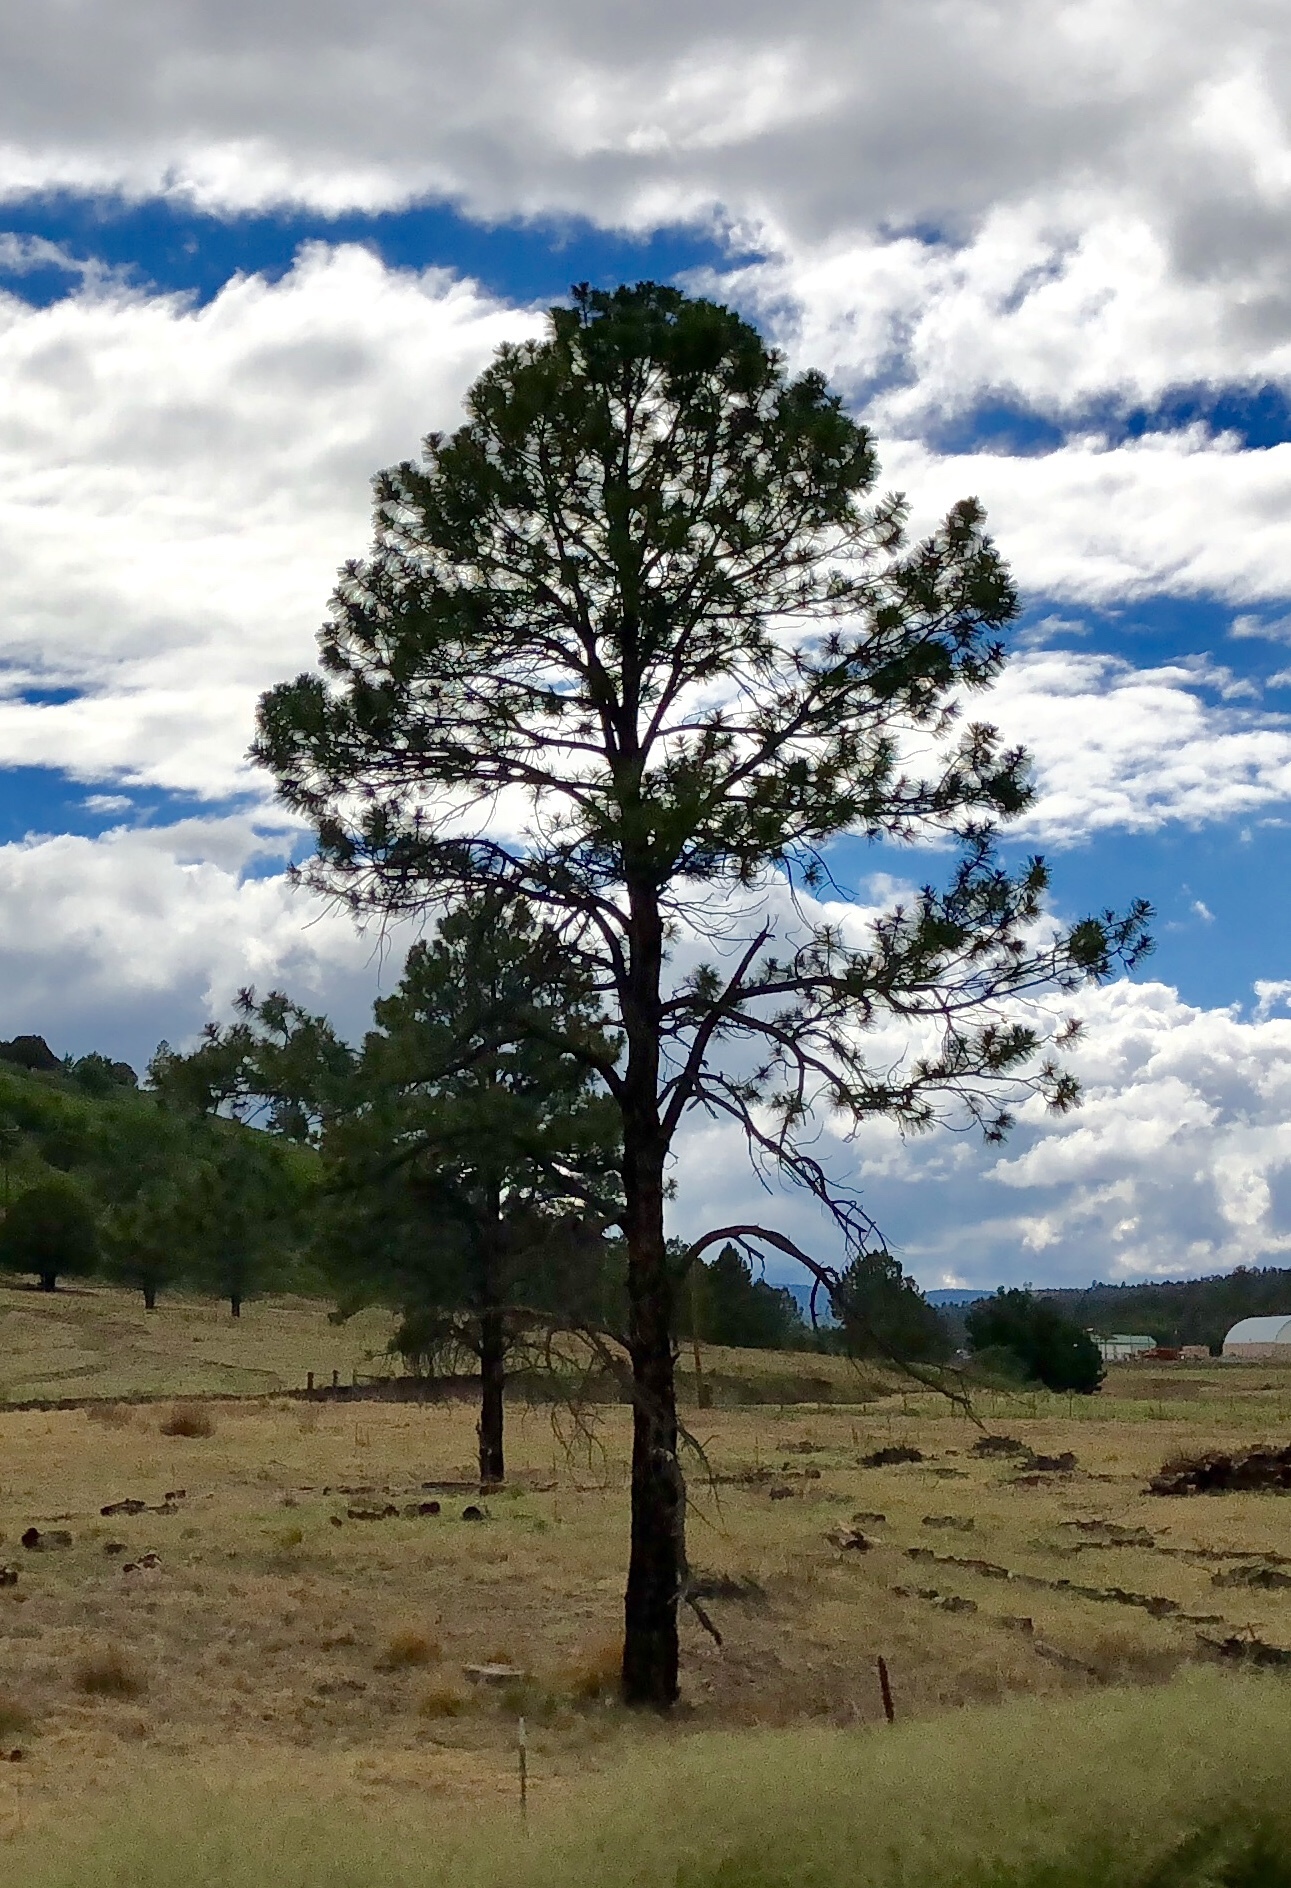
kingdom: Plantae
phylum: Tracheophyta
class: Pinopsida
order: Pinales
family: Pinaceae
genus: Pinus
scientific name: Pinus ponderosa
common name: Western yellow-pine
